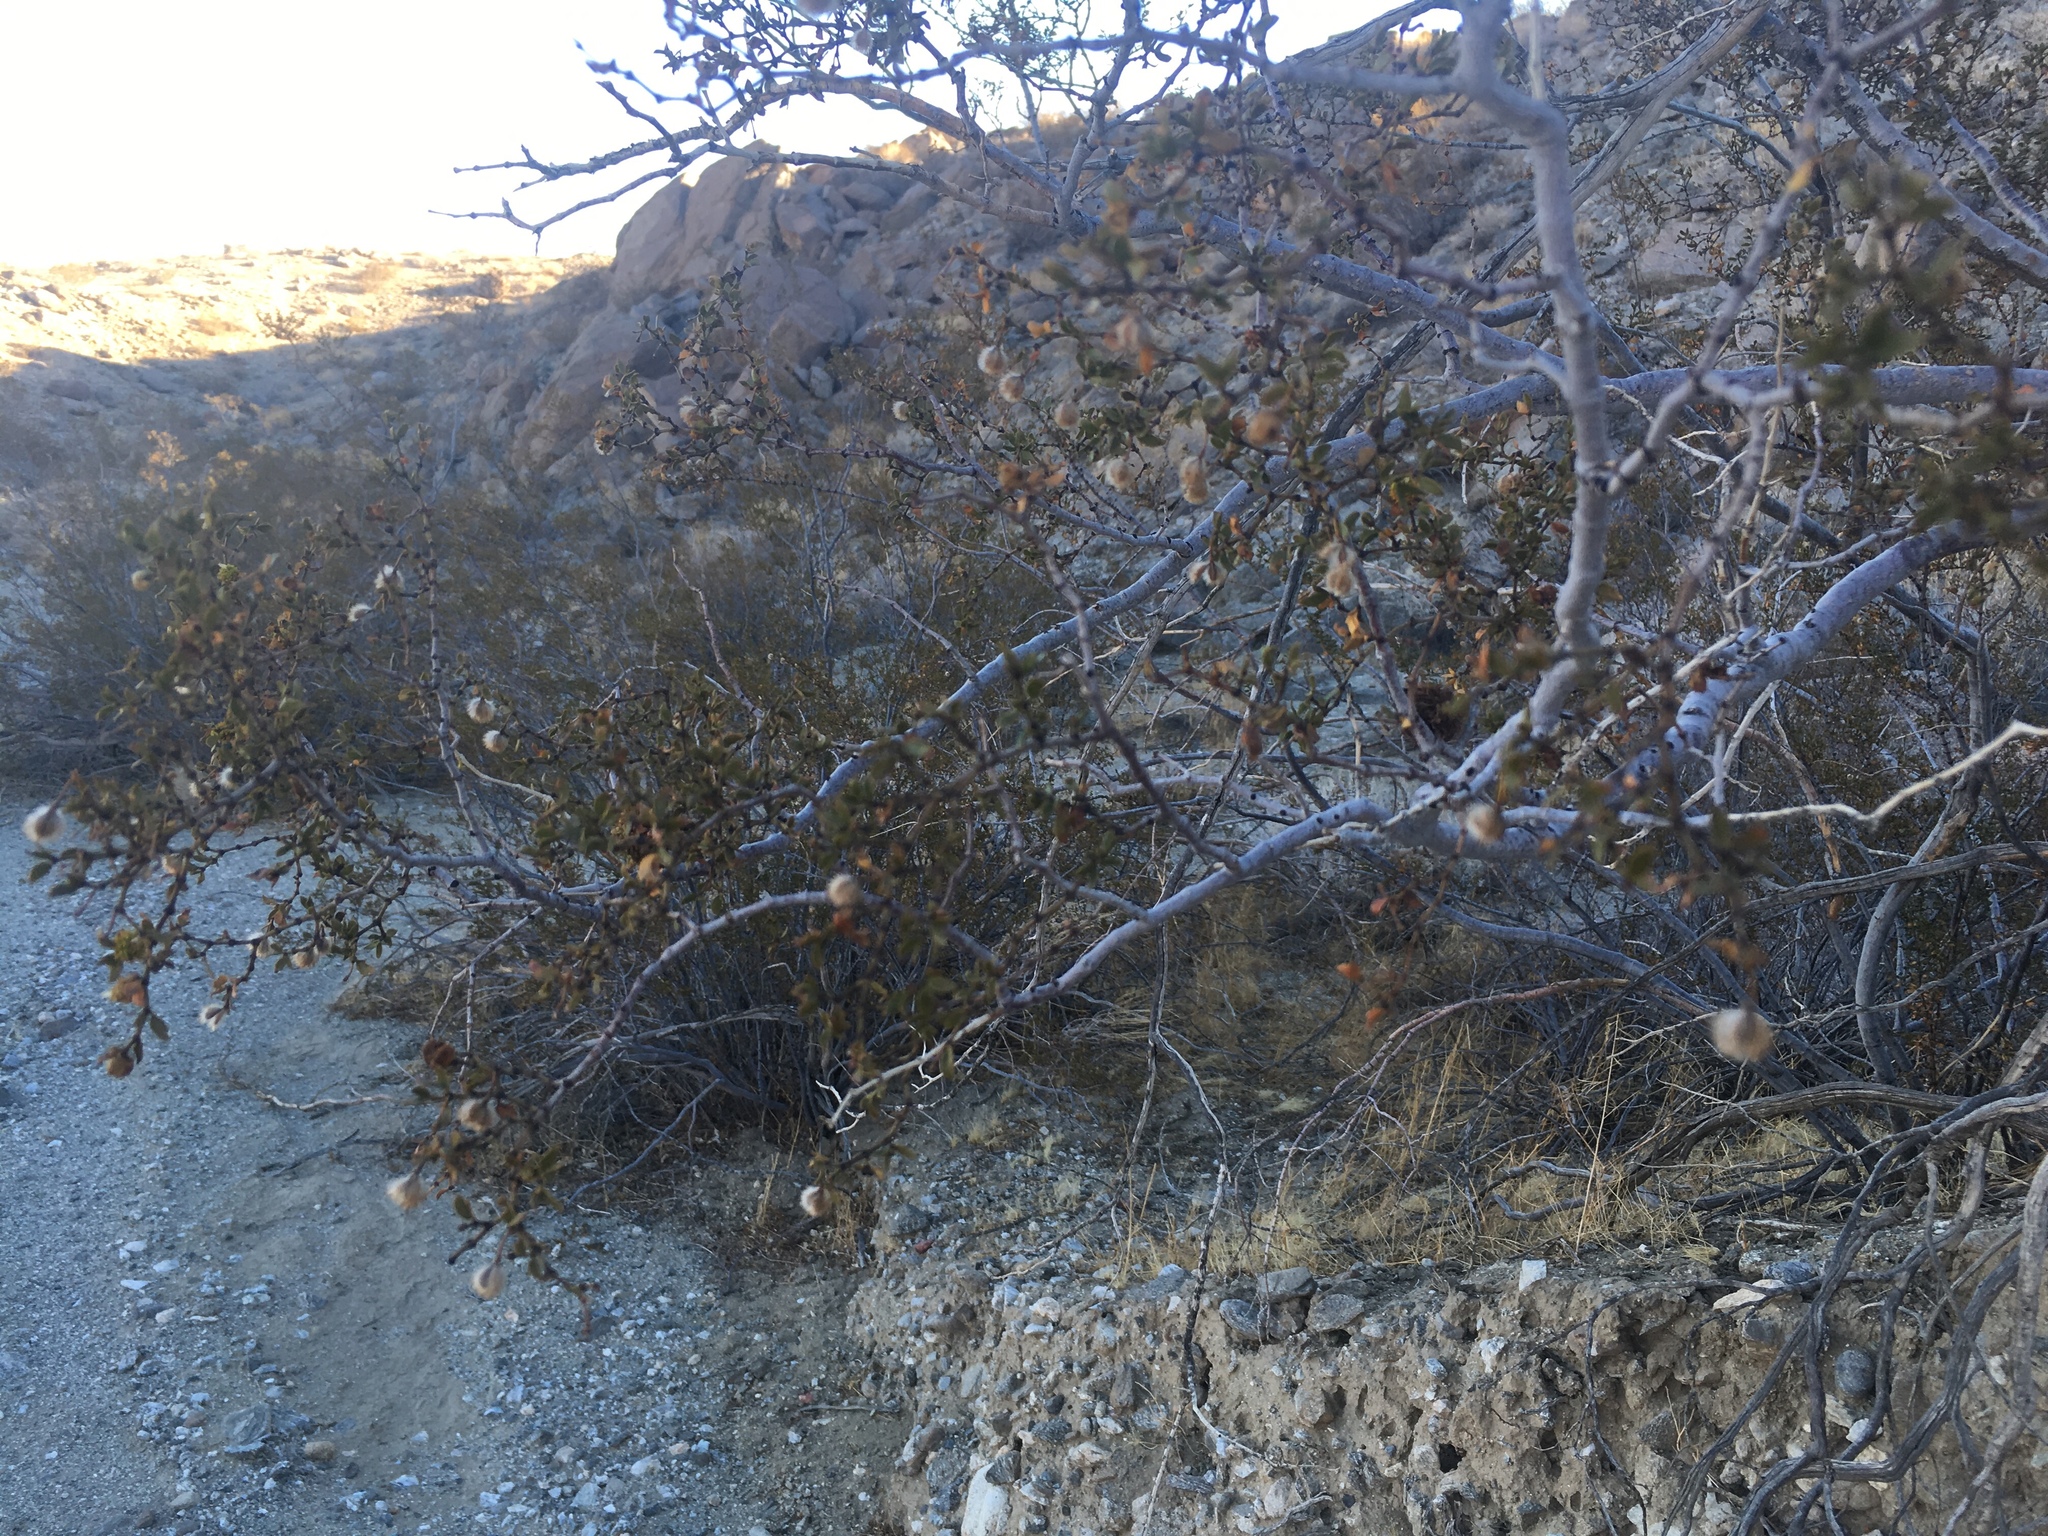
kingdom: Animalia
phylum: Arthropoda
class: Insecta
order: Diptera
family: Cecidomyiidae
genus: Asphondylia
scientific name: Asphondylia auripila
